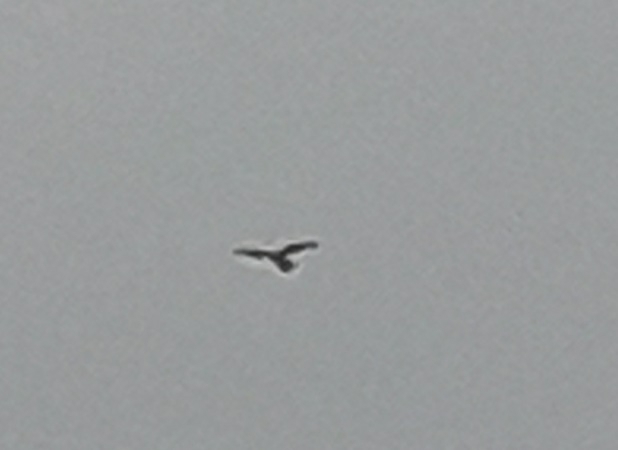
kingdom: Animalia
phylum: Chordata
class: Aves
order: Falconiformes
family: Falconidae
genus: Falco
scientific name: Falco tinnunculus
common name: Common kestrel
